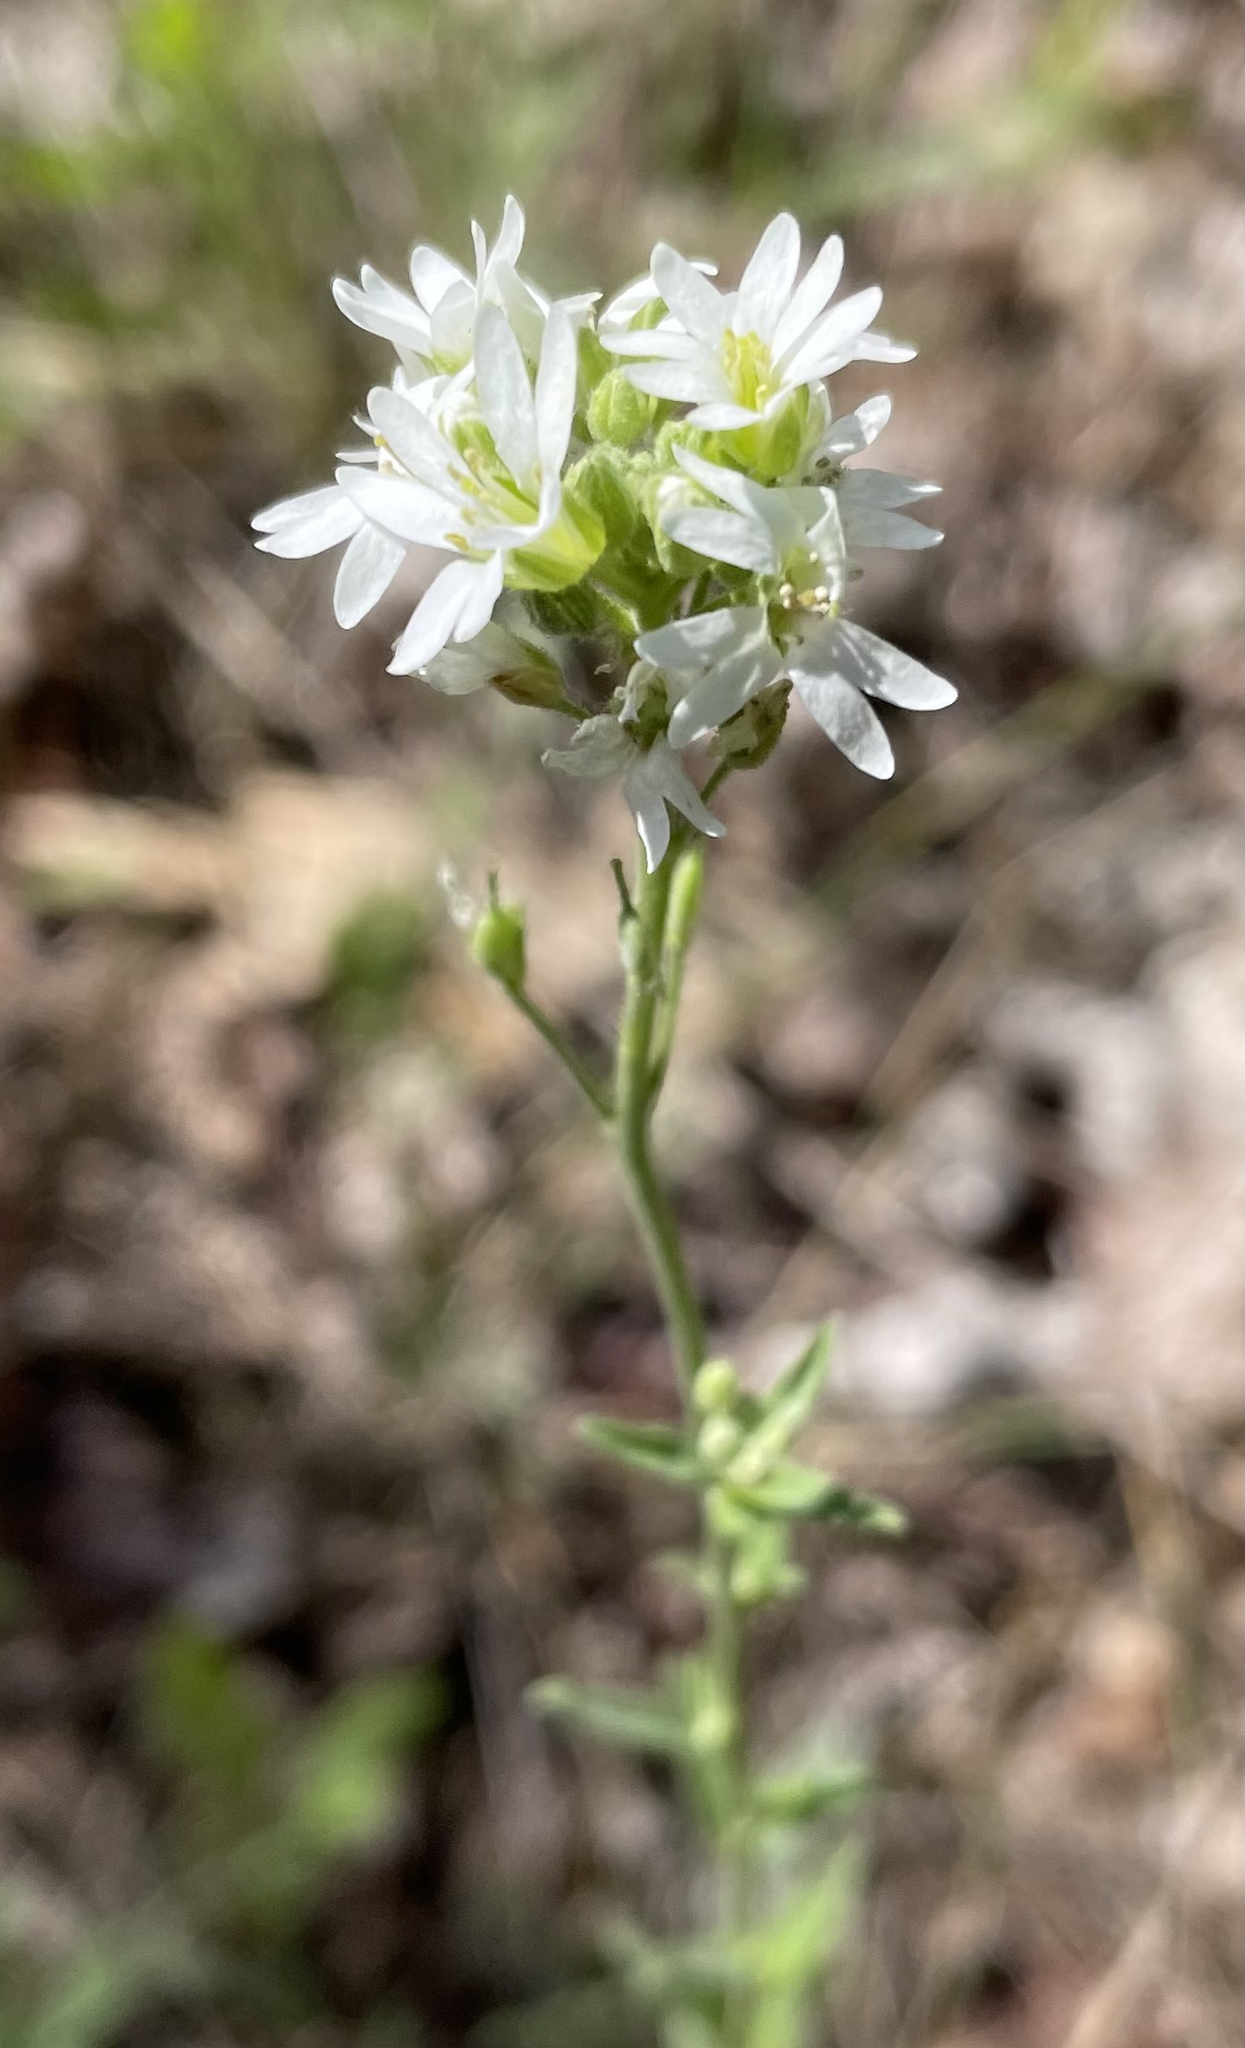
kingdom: Plantae
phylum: Tracheophyta
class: Magnoliopsida
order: Brassicales
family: Brassicaceae
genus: Berteroa
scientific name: Berteroa incana
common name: Hoary alison
